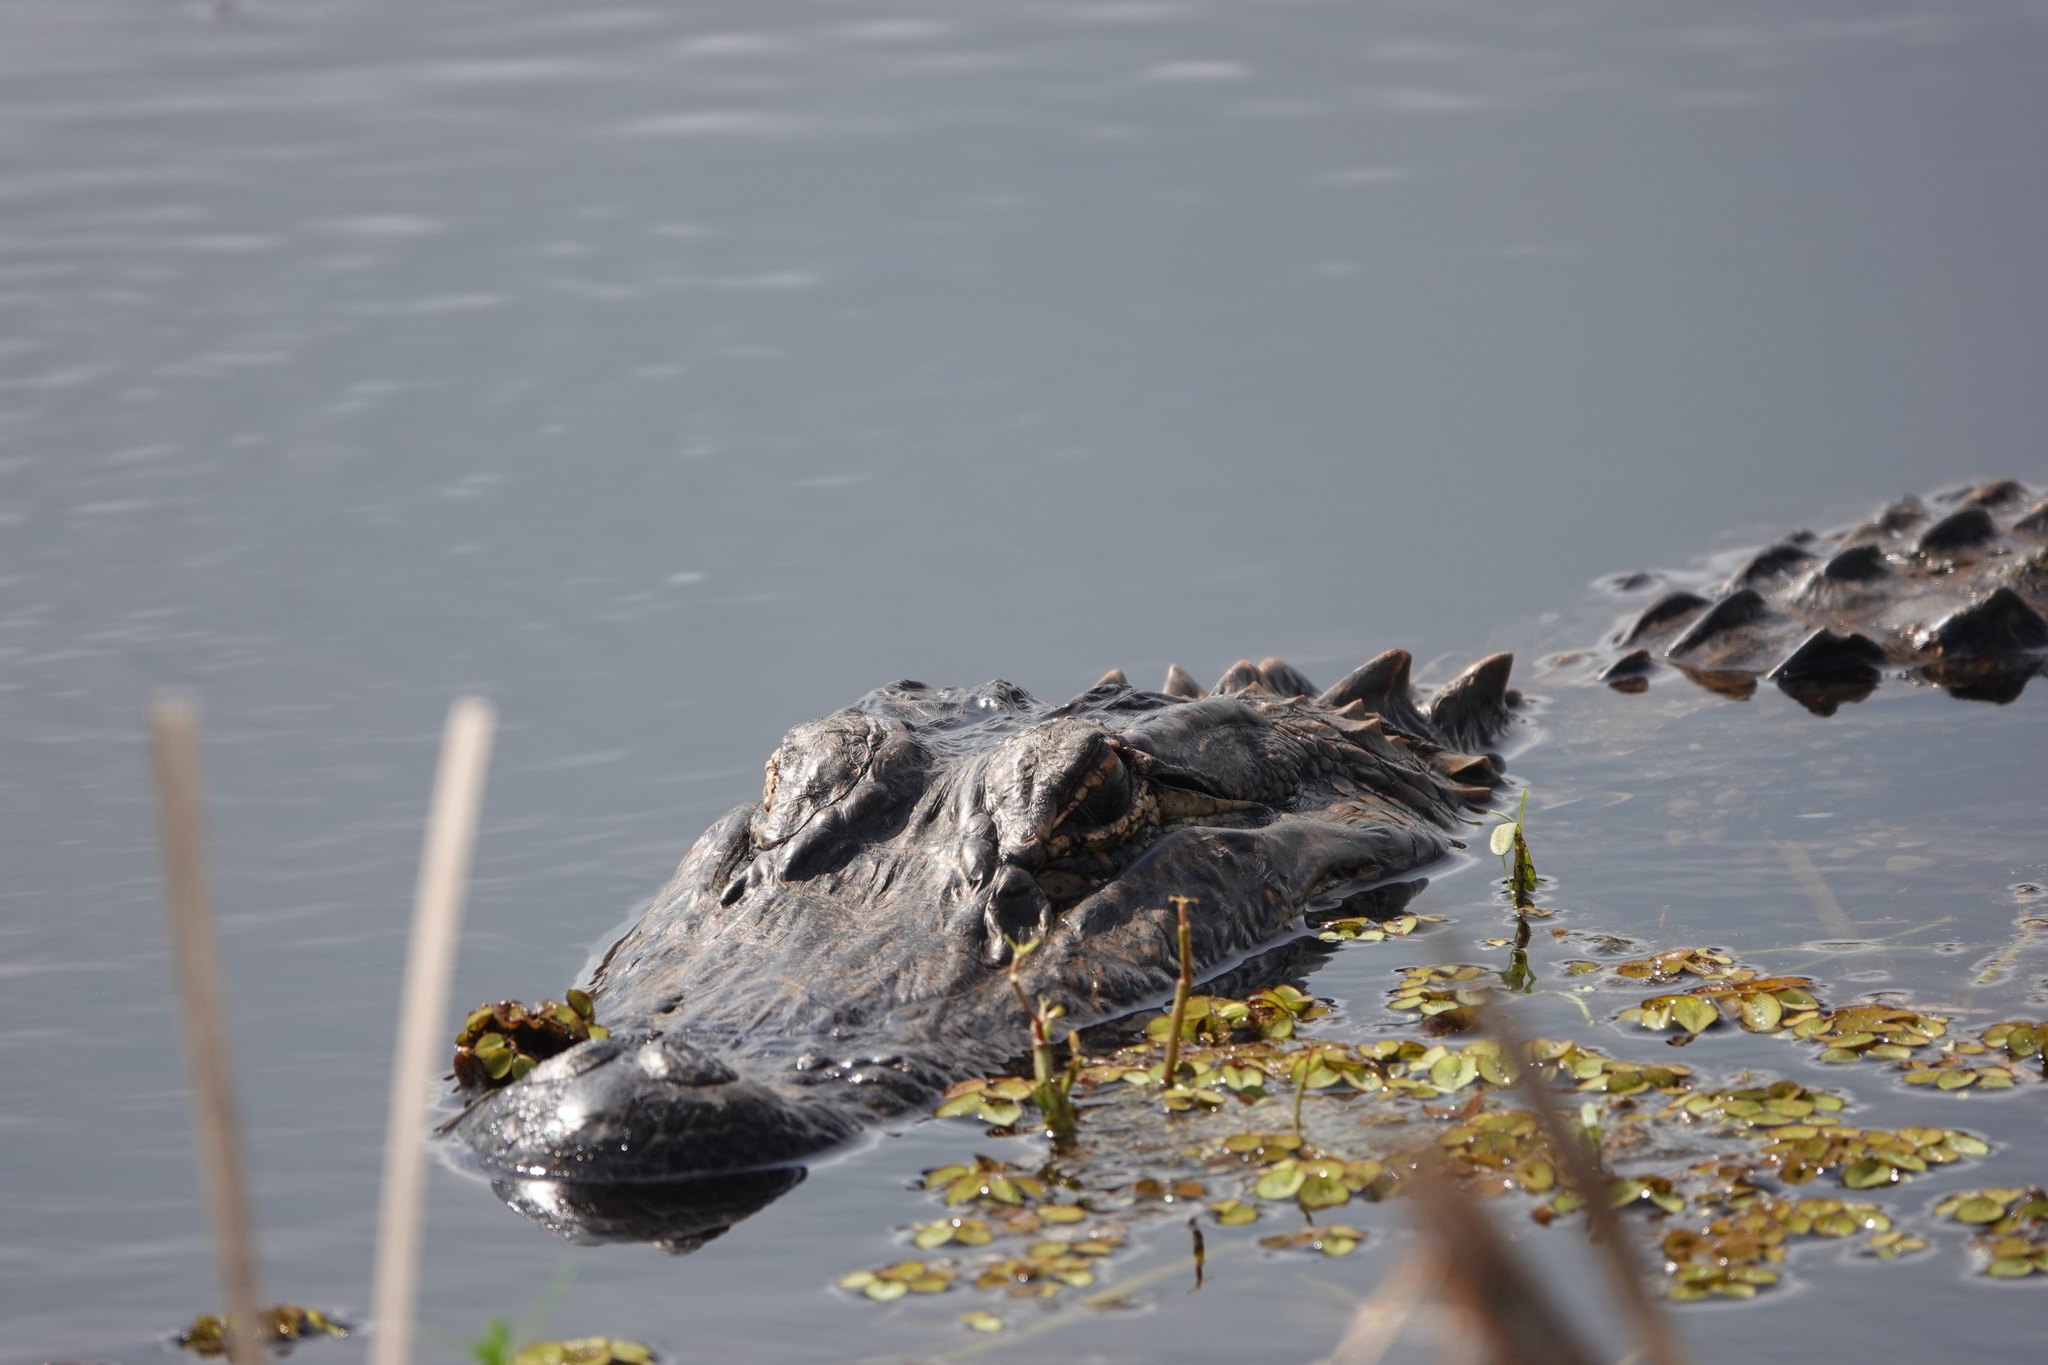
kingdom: Animalia
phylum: Chordata
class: Crocodylia
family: Alligatoridae
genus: Alligator
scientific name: Alligator mississippiensis
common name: American alligator
